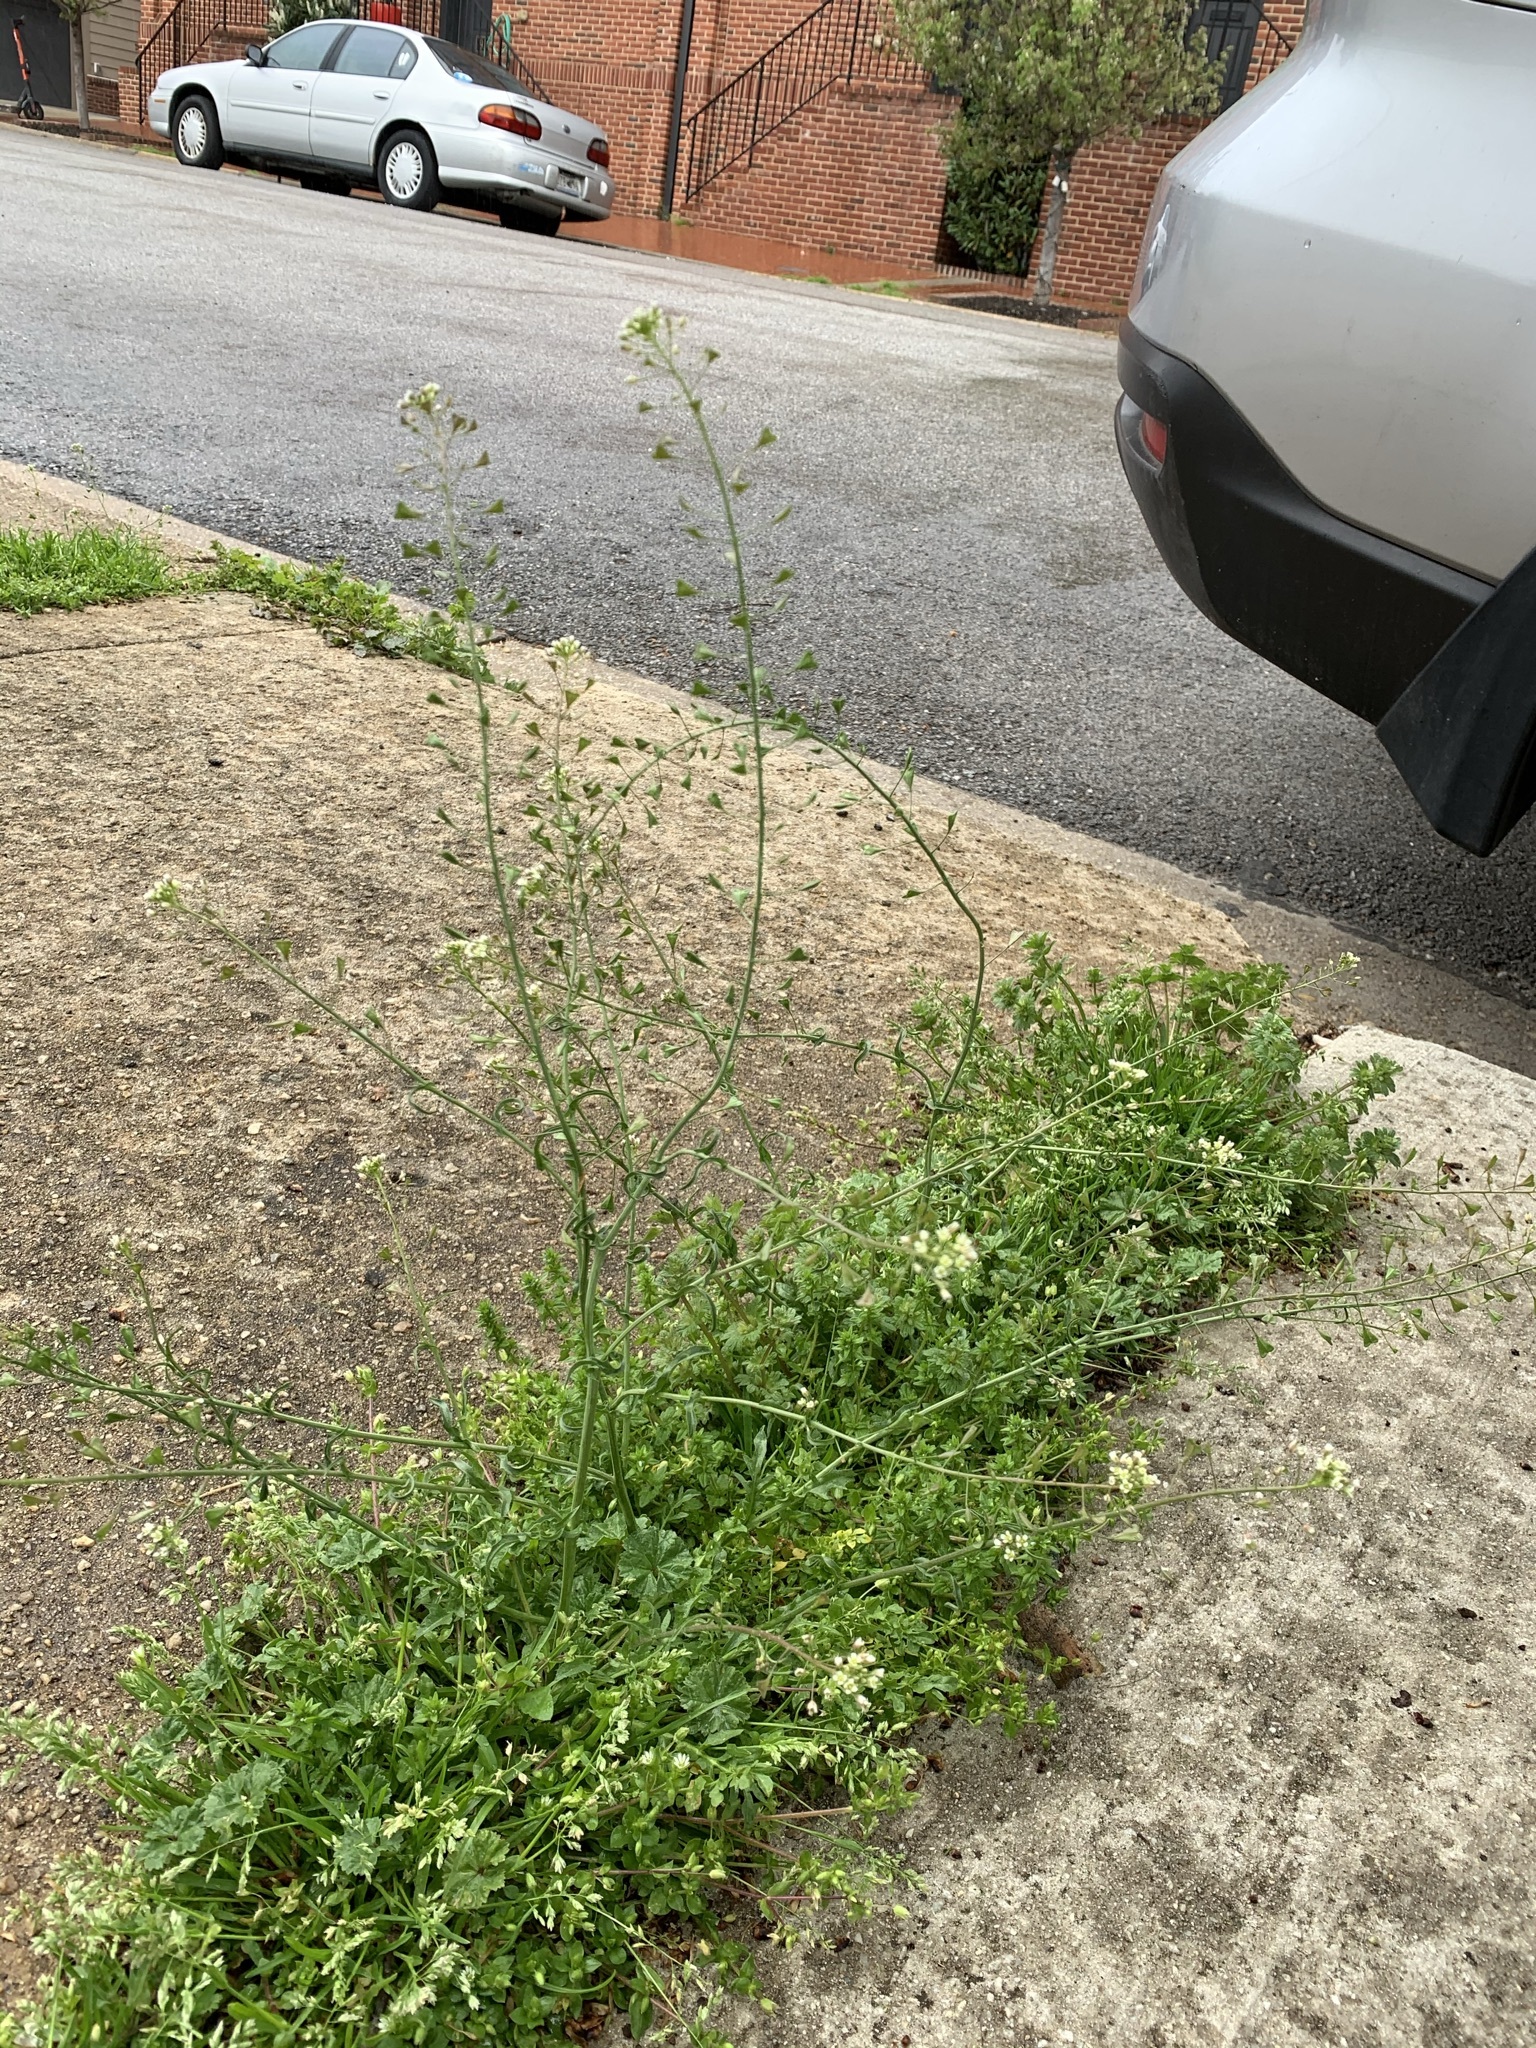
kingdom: Plantae
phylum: Tracheophyta
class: Magnoliopsida
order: Brassicales
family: Brassicaceae
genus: Capsella
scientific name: Capsella bursa-pastoris
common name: Shepherd's purse
